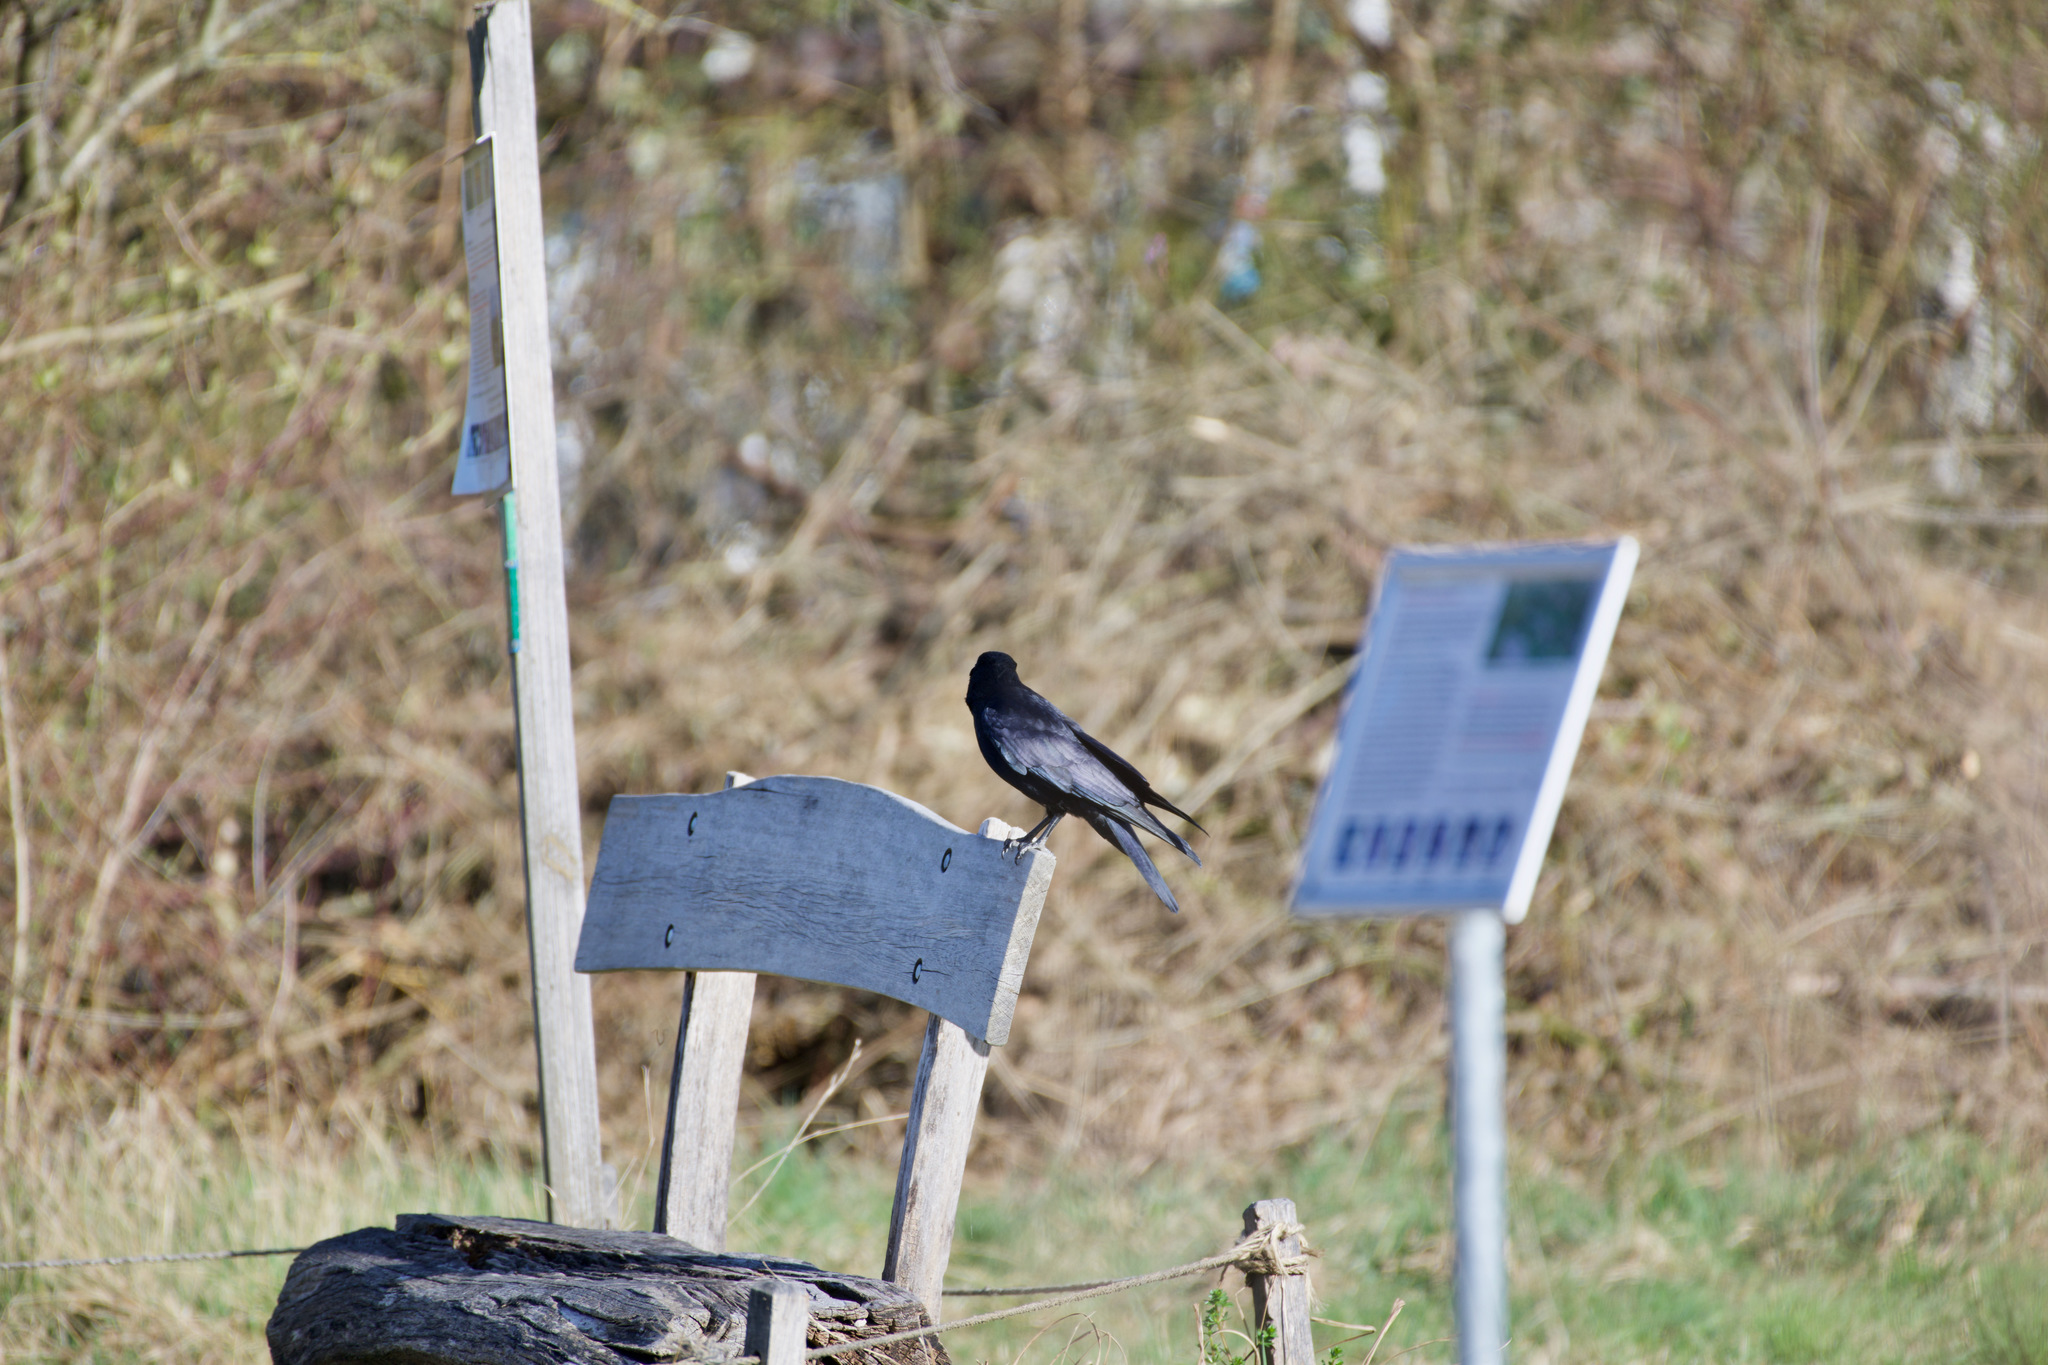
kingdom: Animalia
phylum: Chordata
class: Aves
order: Passeriformes
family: Corvidae
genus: Corvus
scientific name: Corvus corone
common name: Carrion crow
